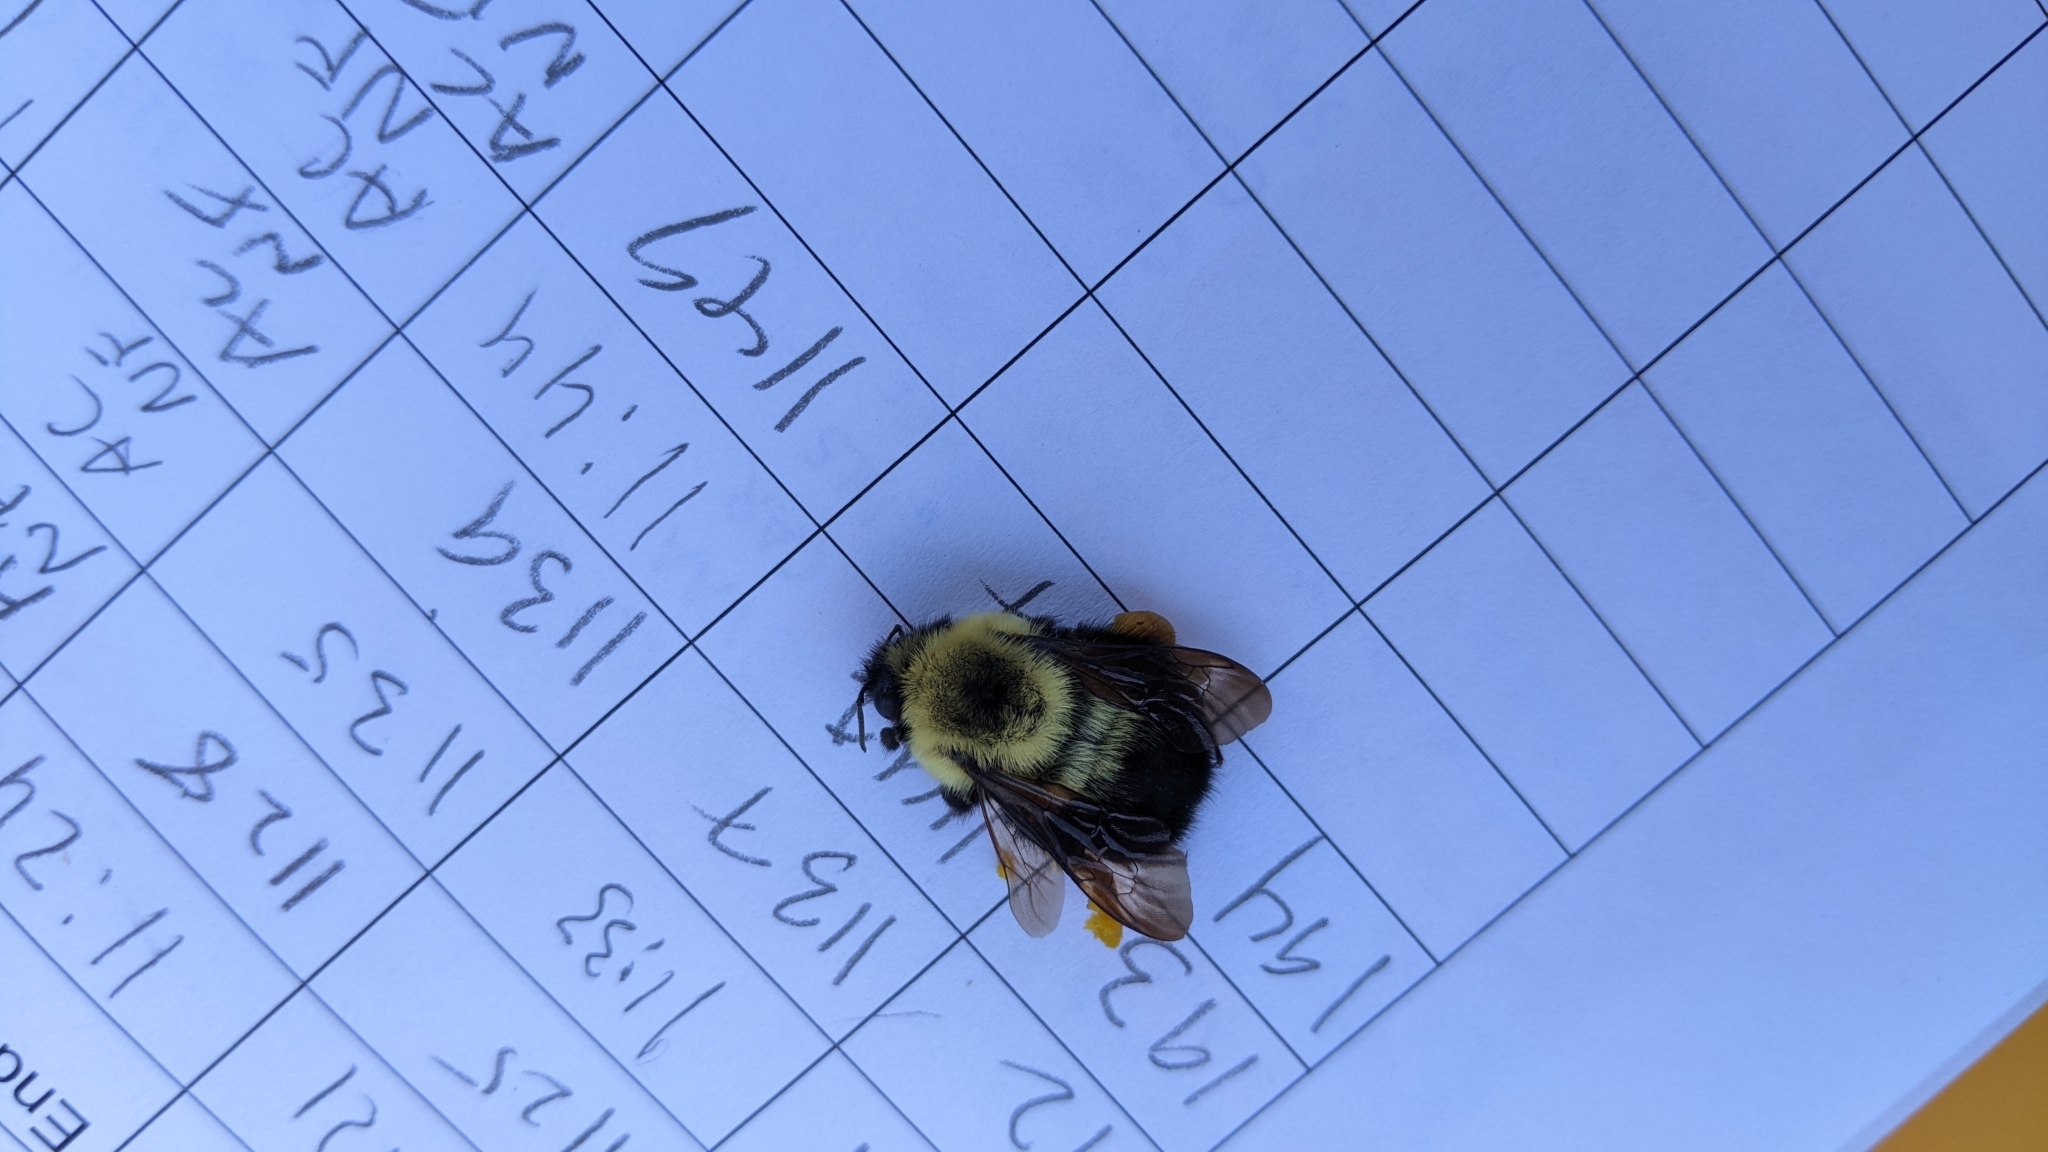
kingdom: Animalia
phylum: Arthropoda
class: Insecta
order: Hymenoptera
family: Apidae
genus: Bombus
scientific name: Bombus bimaculatus
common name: Two-spotted bumble bee
